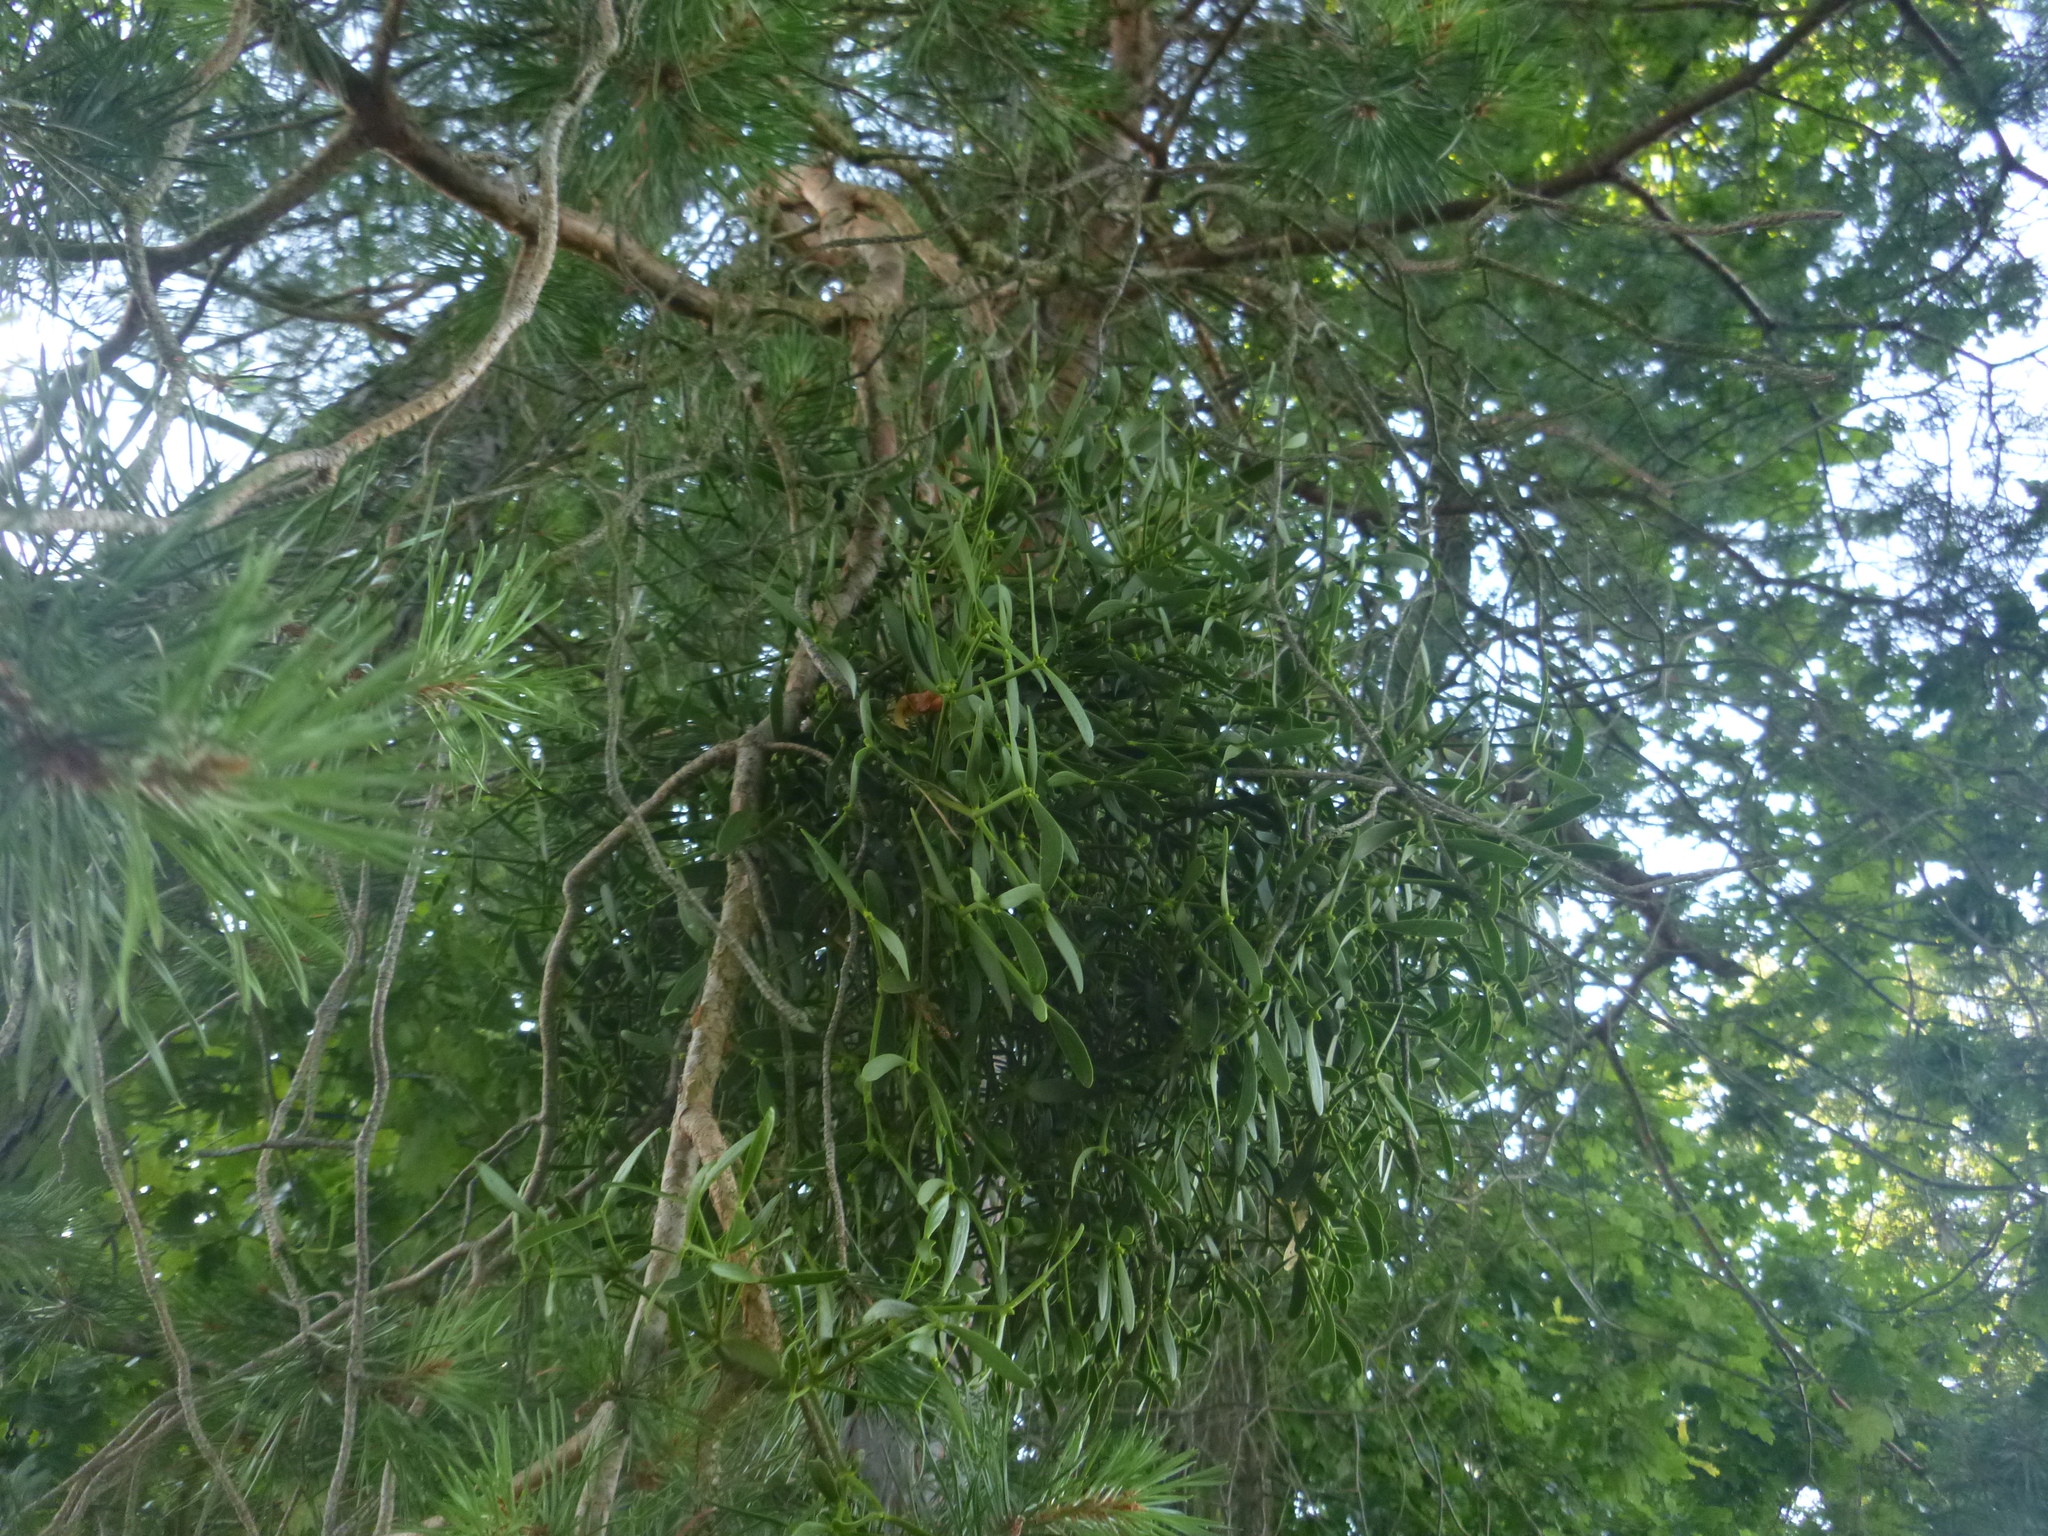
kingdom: Plantae
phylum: Tracheophyta
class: Magnoliopsida
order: Santalales
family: Viscaceae
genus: Viscum
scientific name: Viscum laxum
